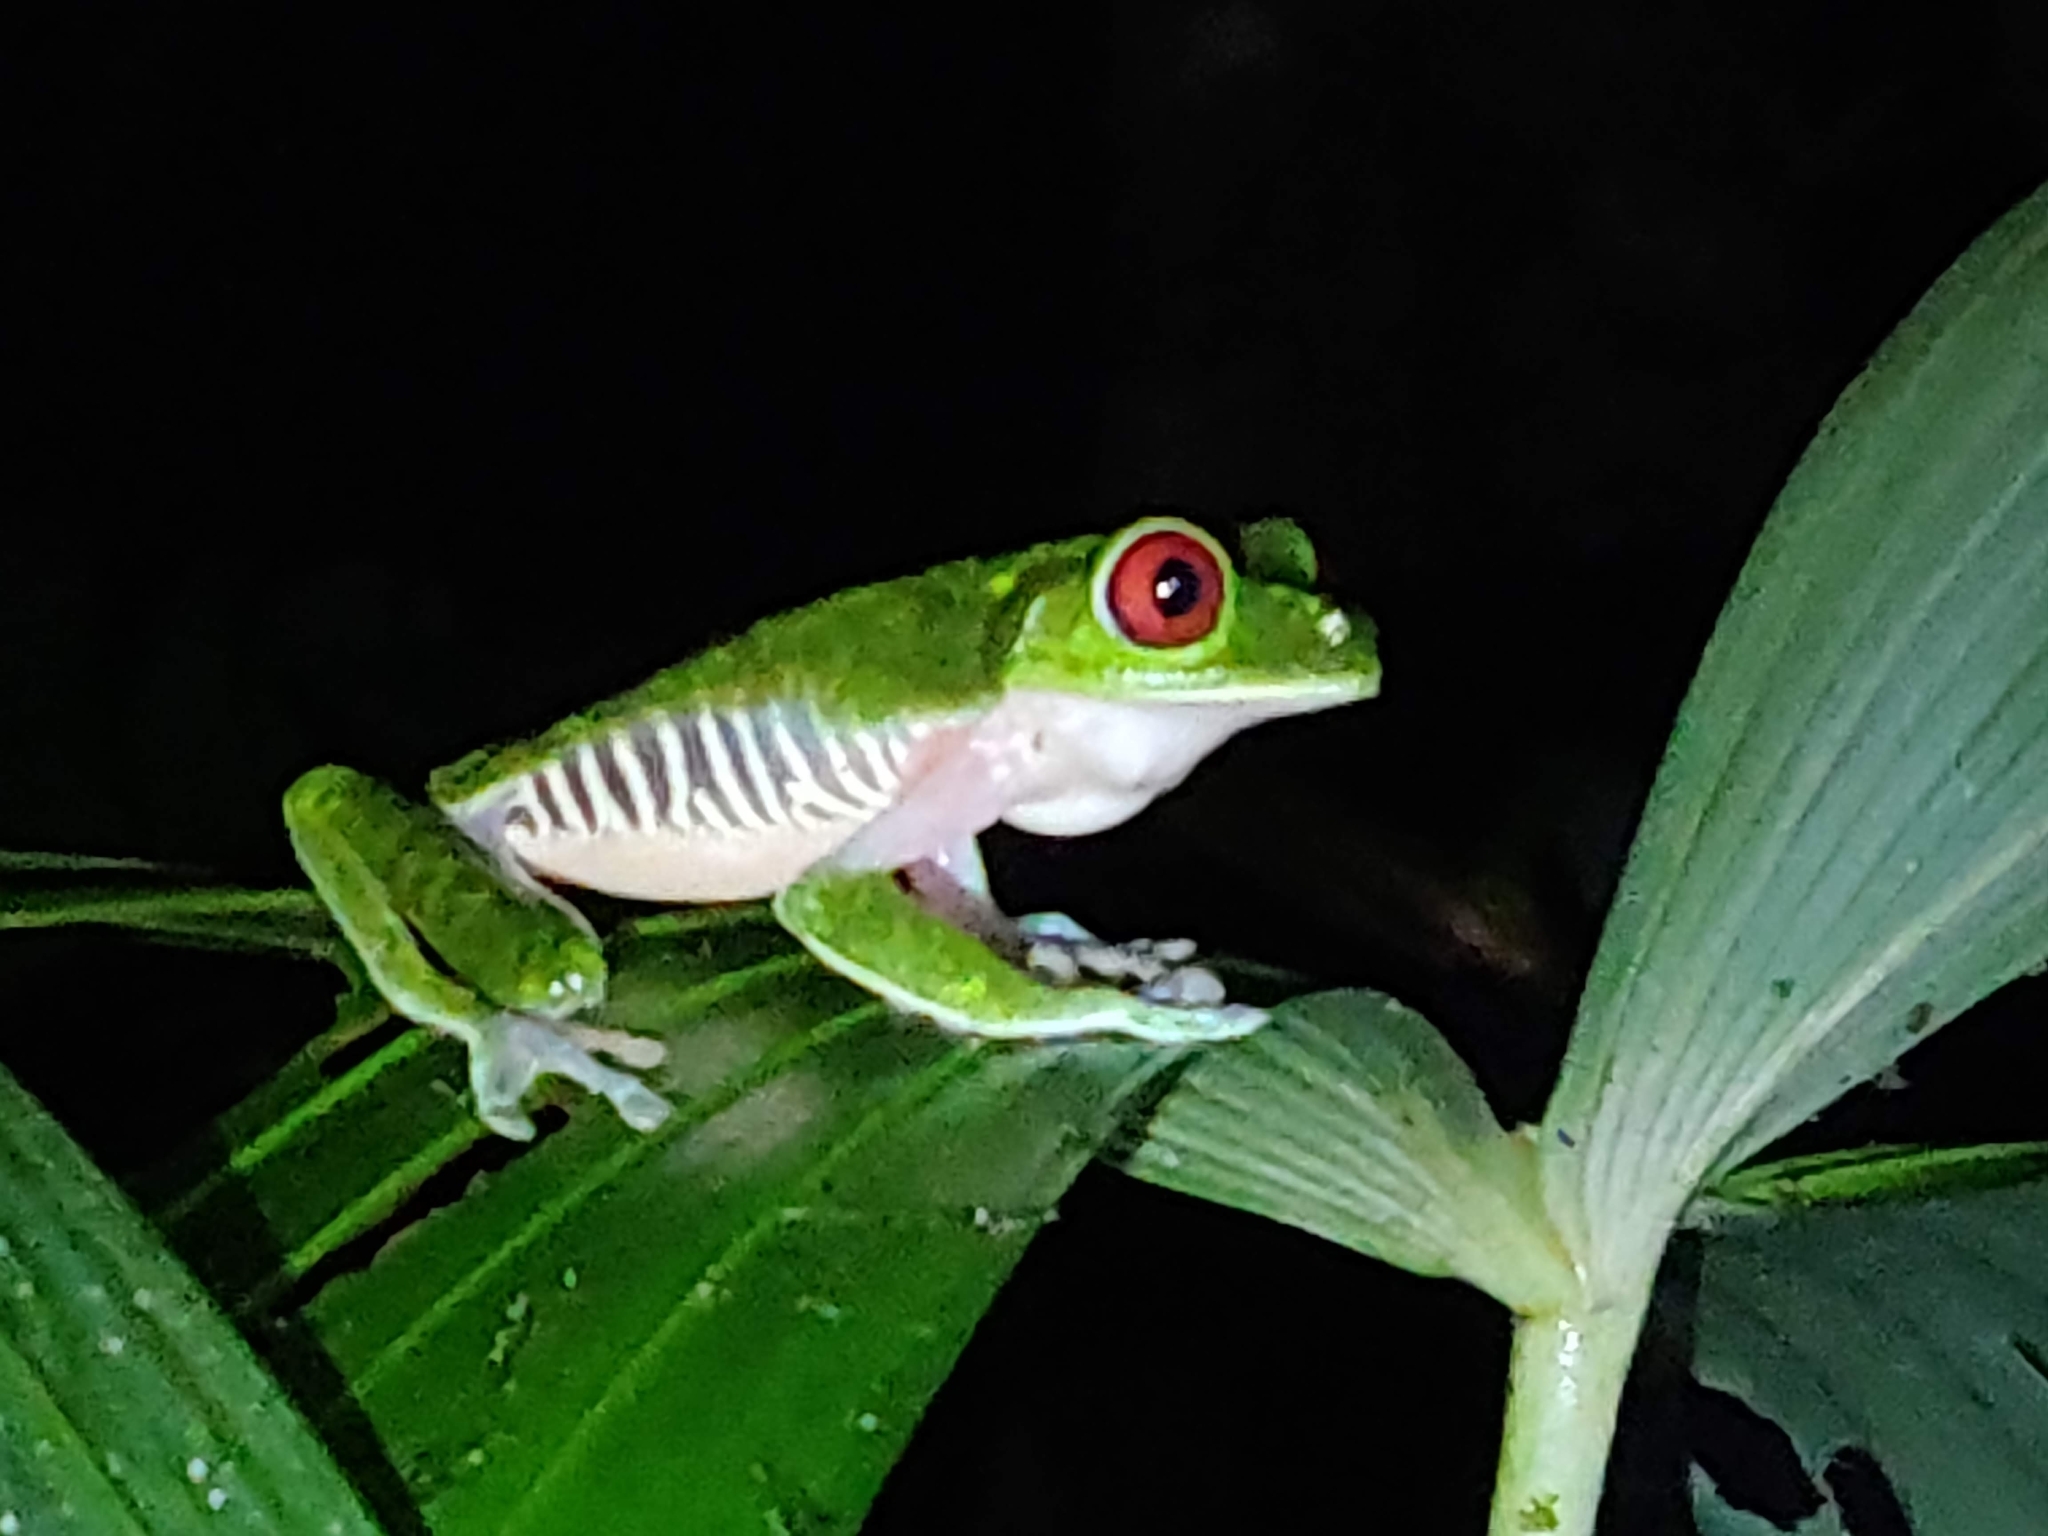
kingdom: Animalia
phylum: Chordata
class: Amphibia
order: Anura
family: Phyllomedusidae
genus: Agalychnis
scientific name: Agalychnis callidryas
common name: Red-eyed treefrog
